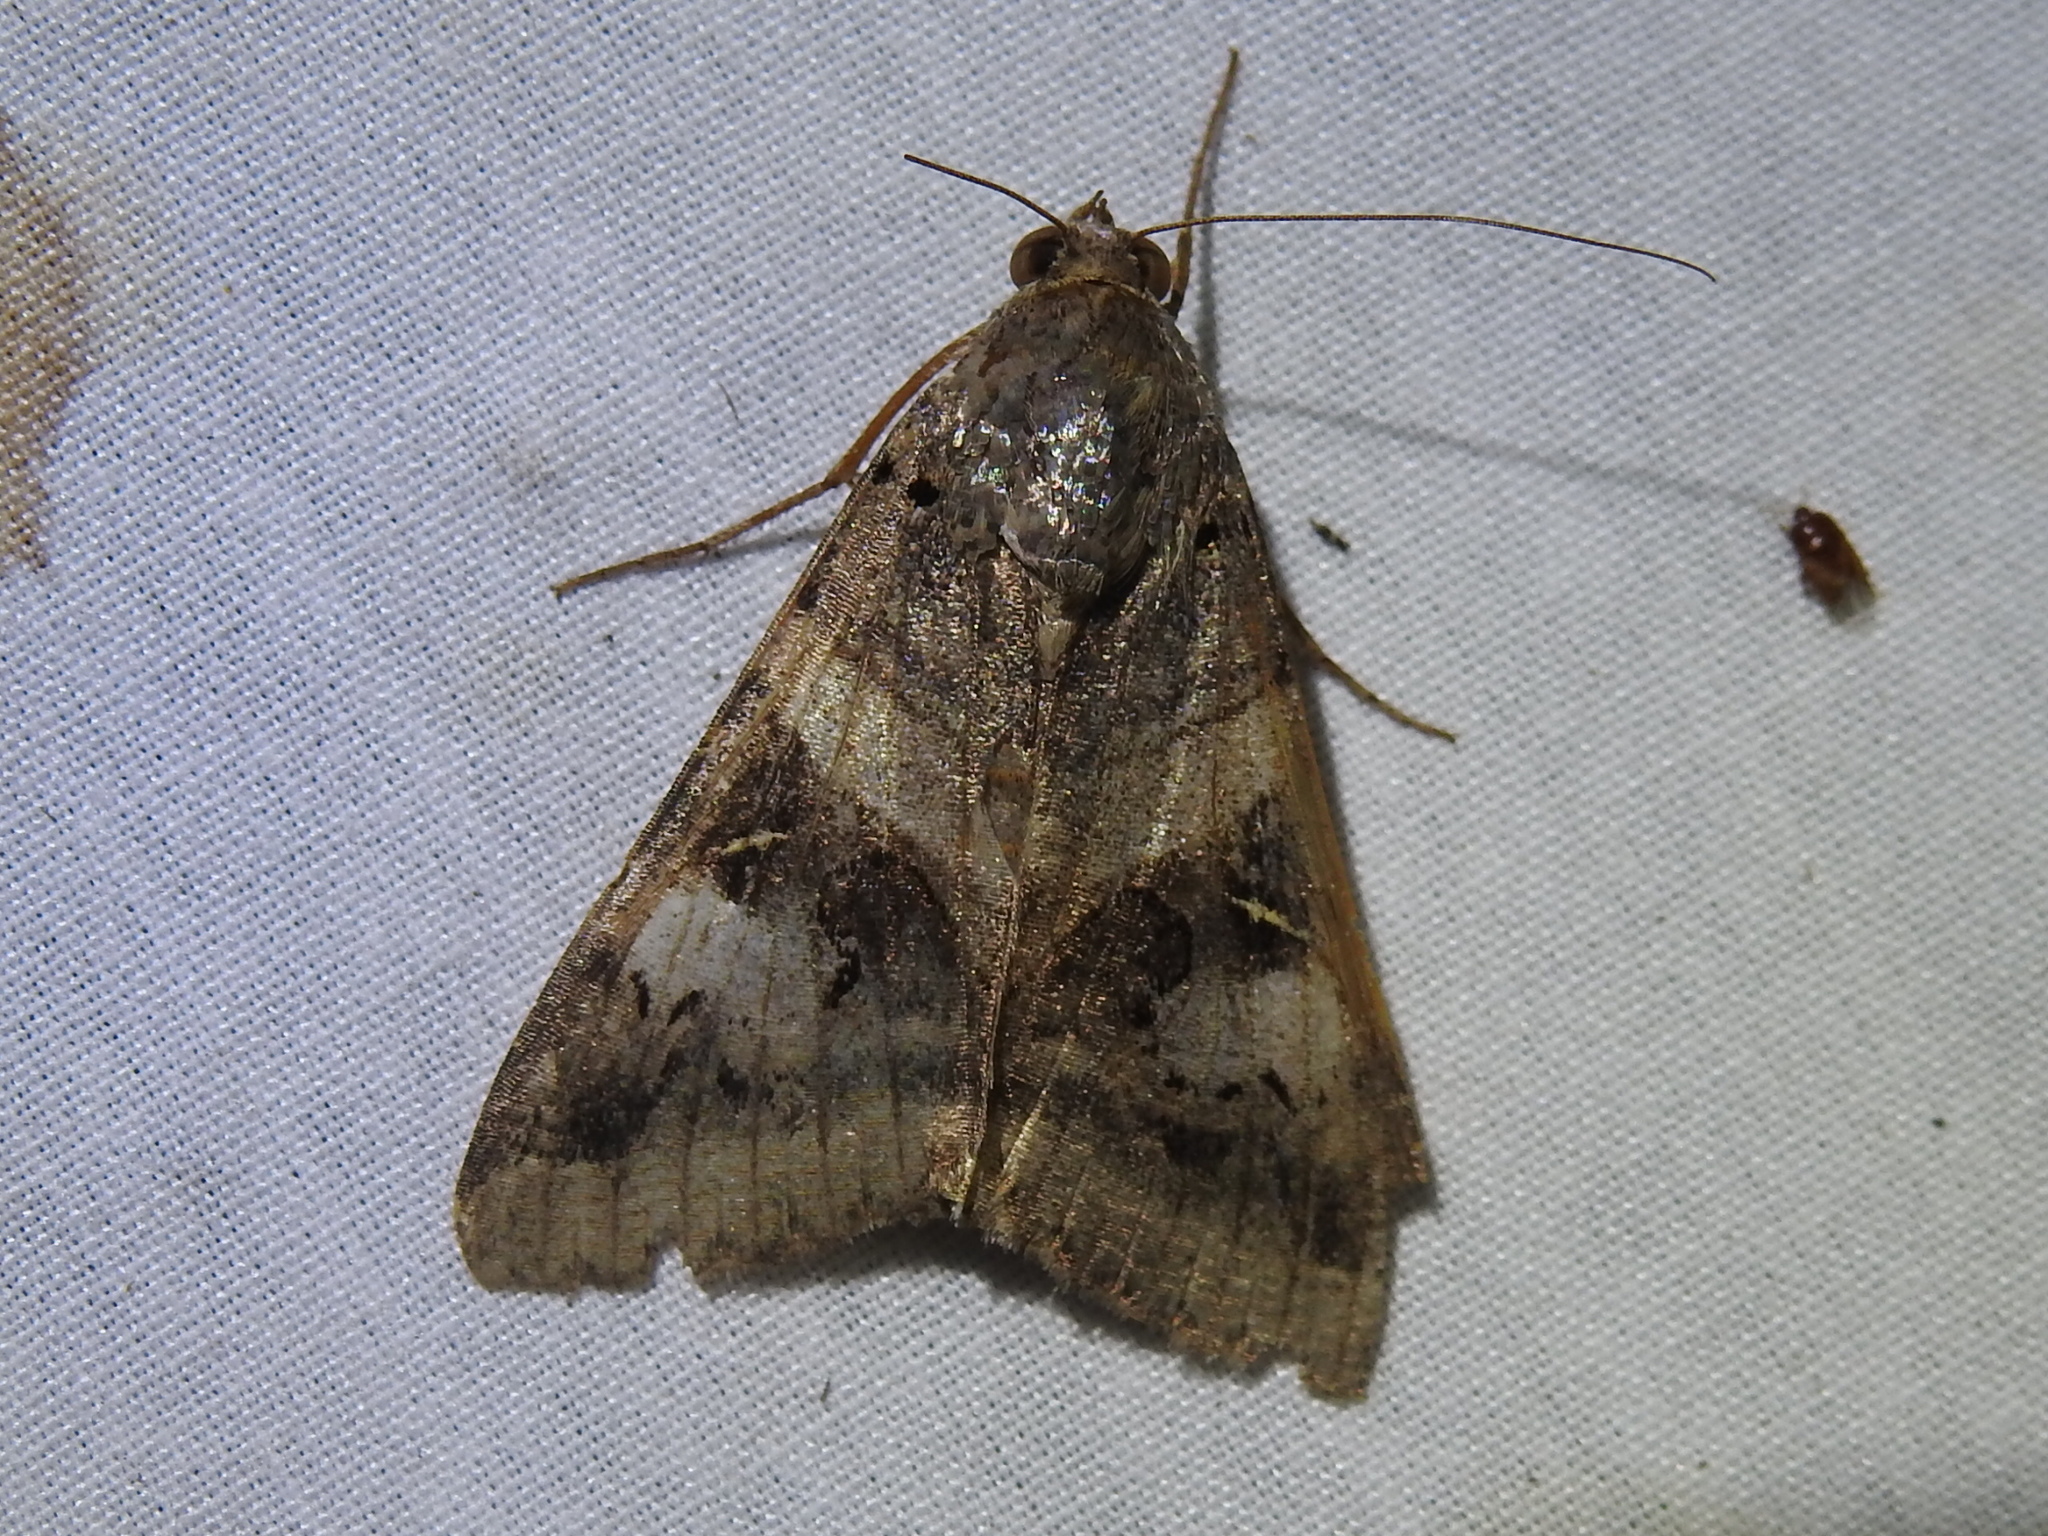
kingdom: Animalia
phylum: Arthropoda
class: Insecta
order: Lepidoptera
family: Erebidae
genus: Melipotis
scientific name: Melipotis indomita
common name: Moth
